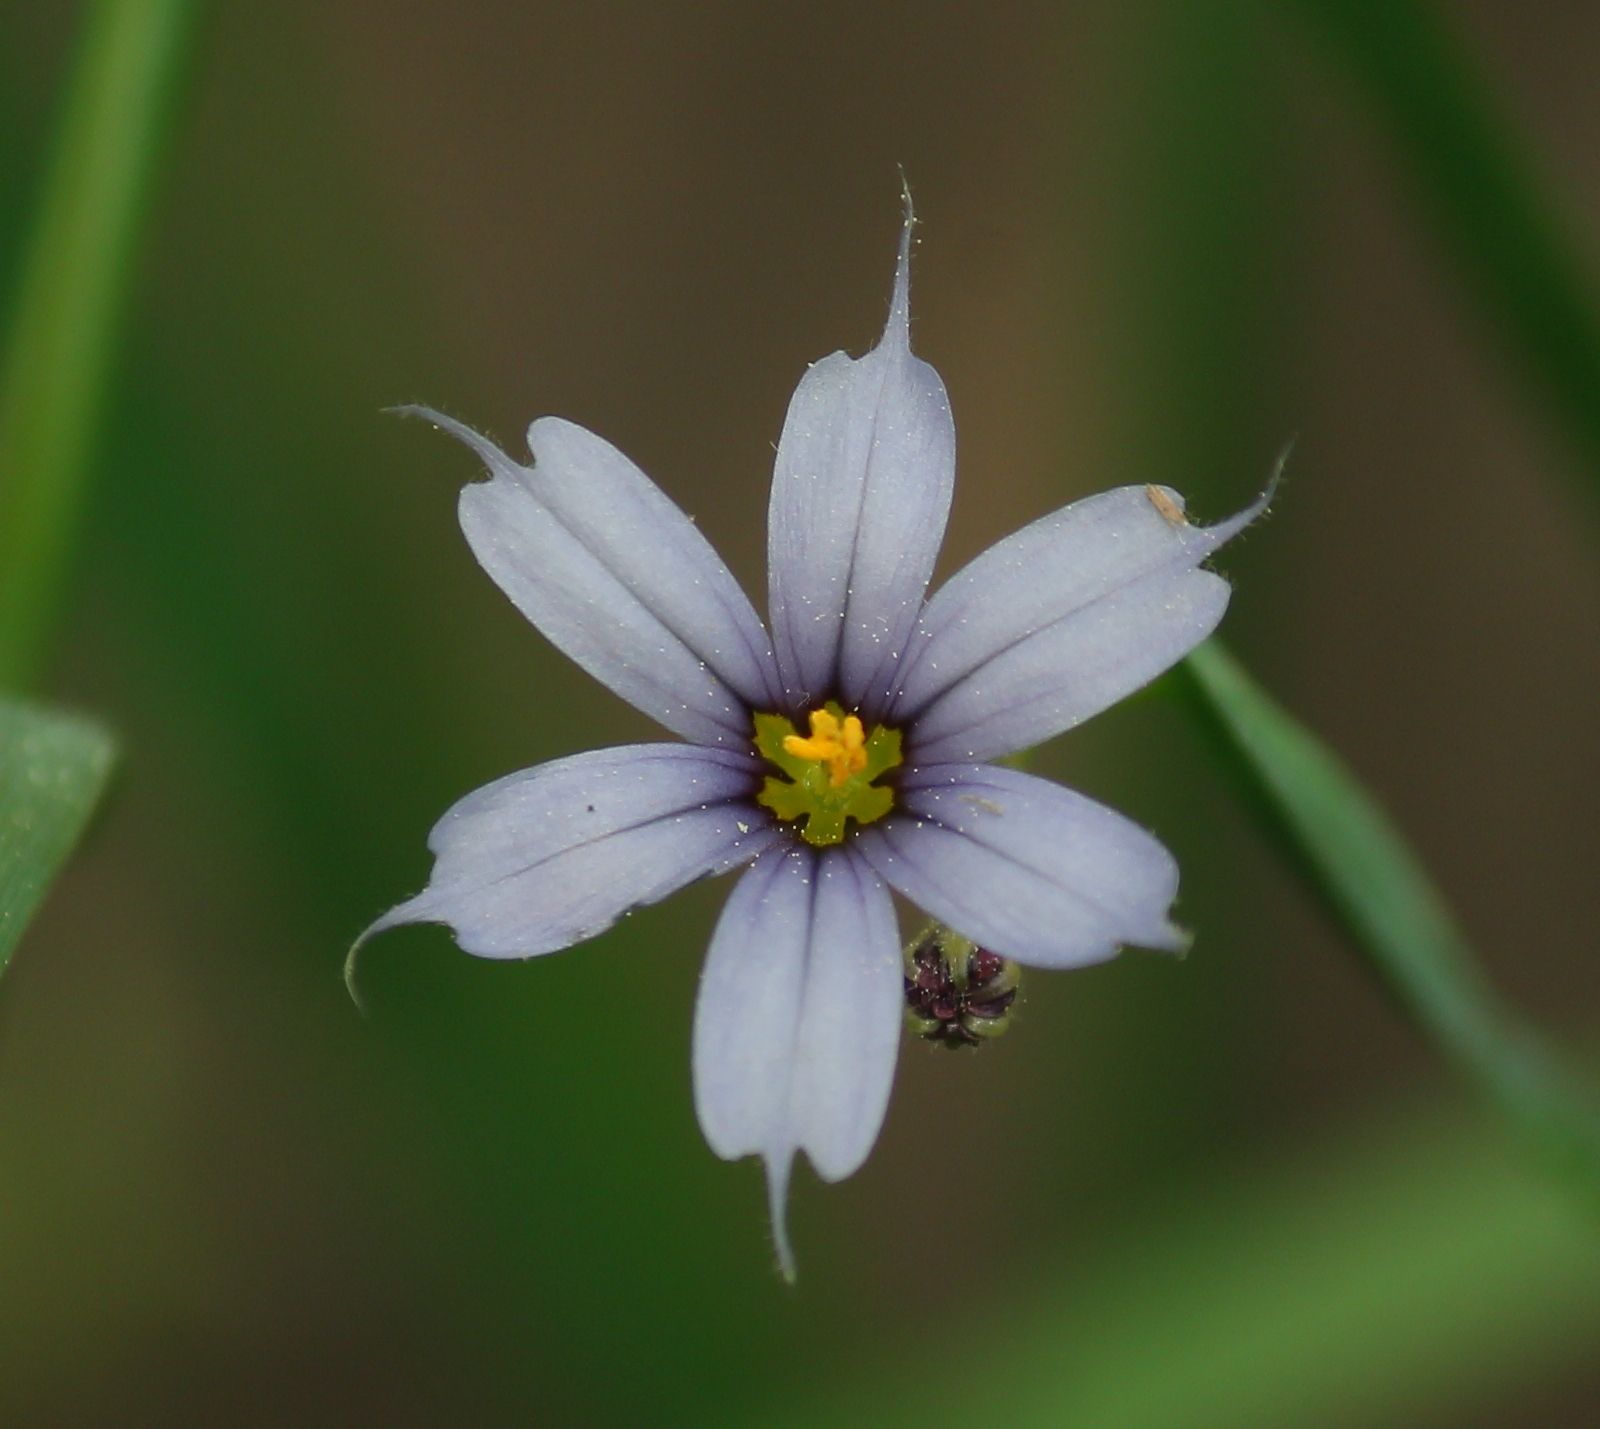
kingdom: Plantae
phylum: Tracheophyta
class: Liliopsida
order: Asparagales
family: Iridaceae
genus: Sisyrinchium
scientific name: Sisyrinchium angustifolium
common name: Narrow-leaf blue-eyed-grass
